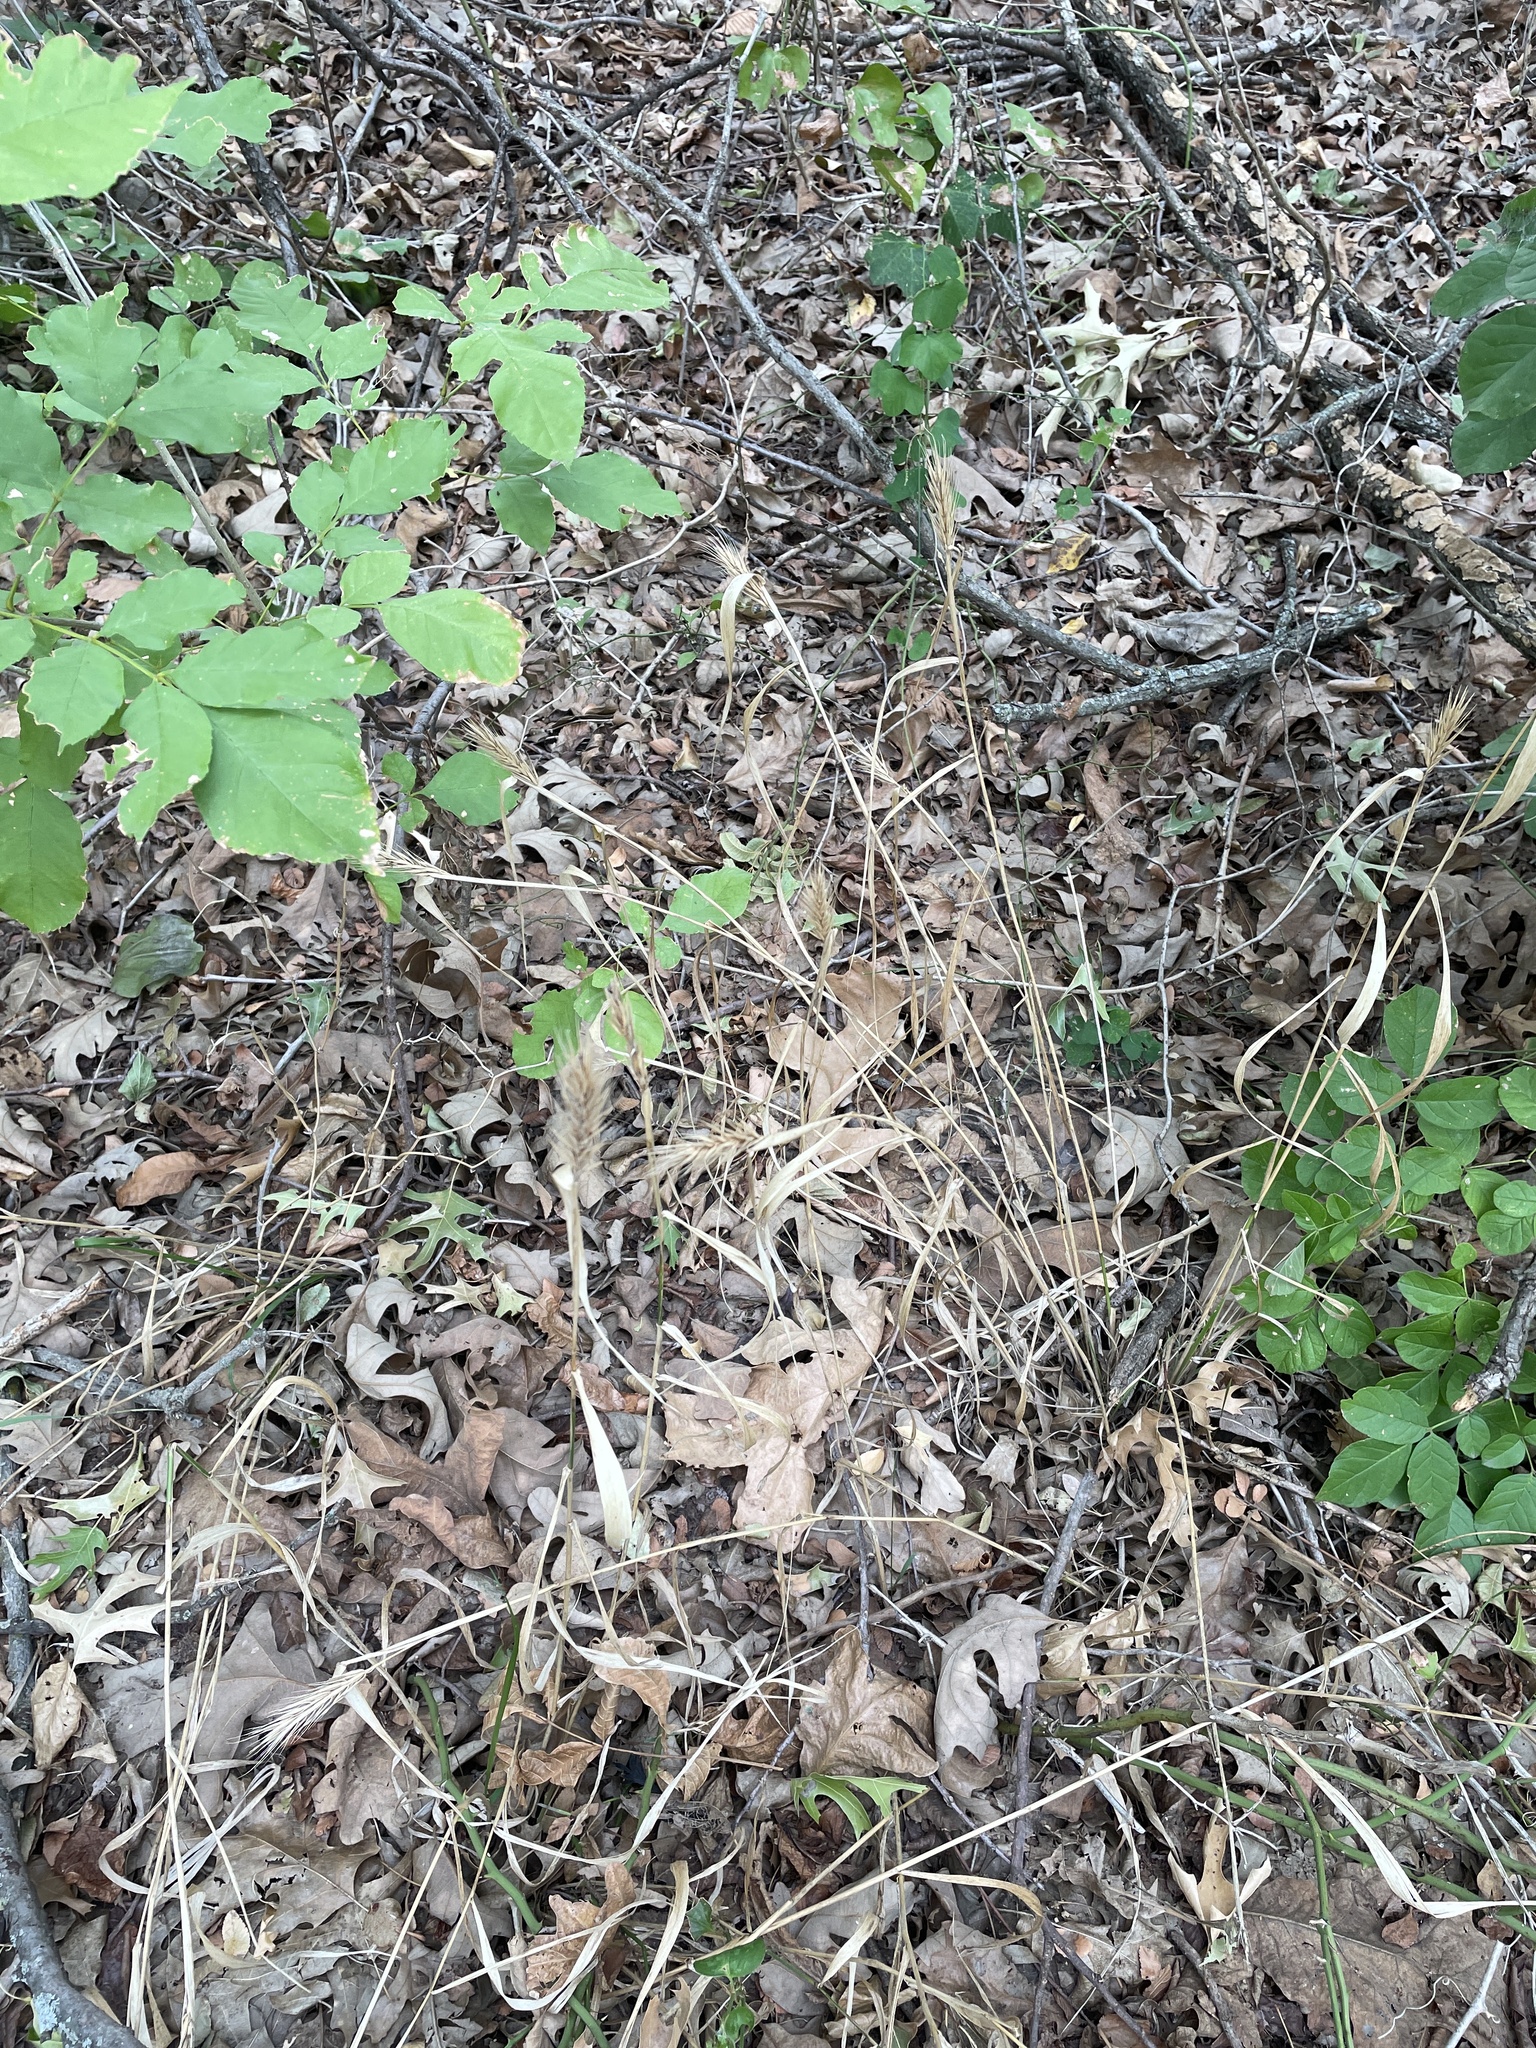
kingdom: Plantae
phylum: Tracheophyta
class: Liliopsida
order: Poales
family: Poaceae
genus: Elymus
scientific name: Elymus virginicus
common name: Common eastern wildrye
